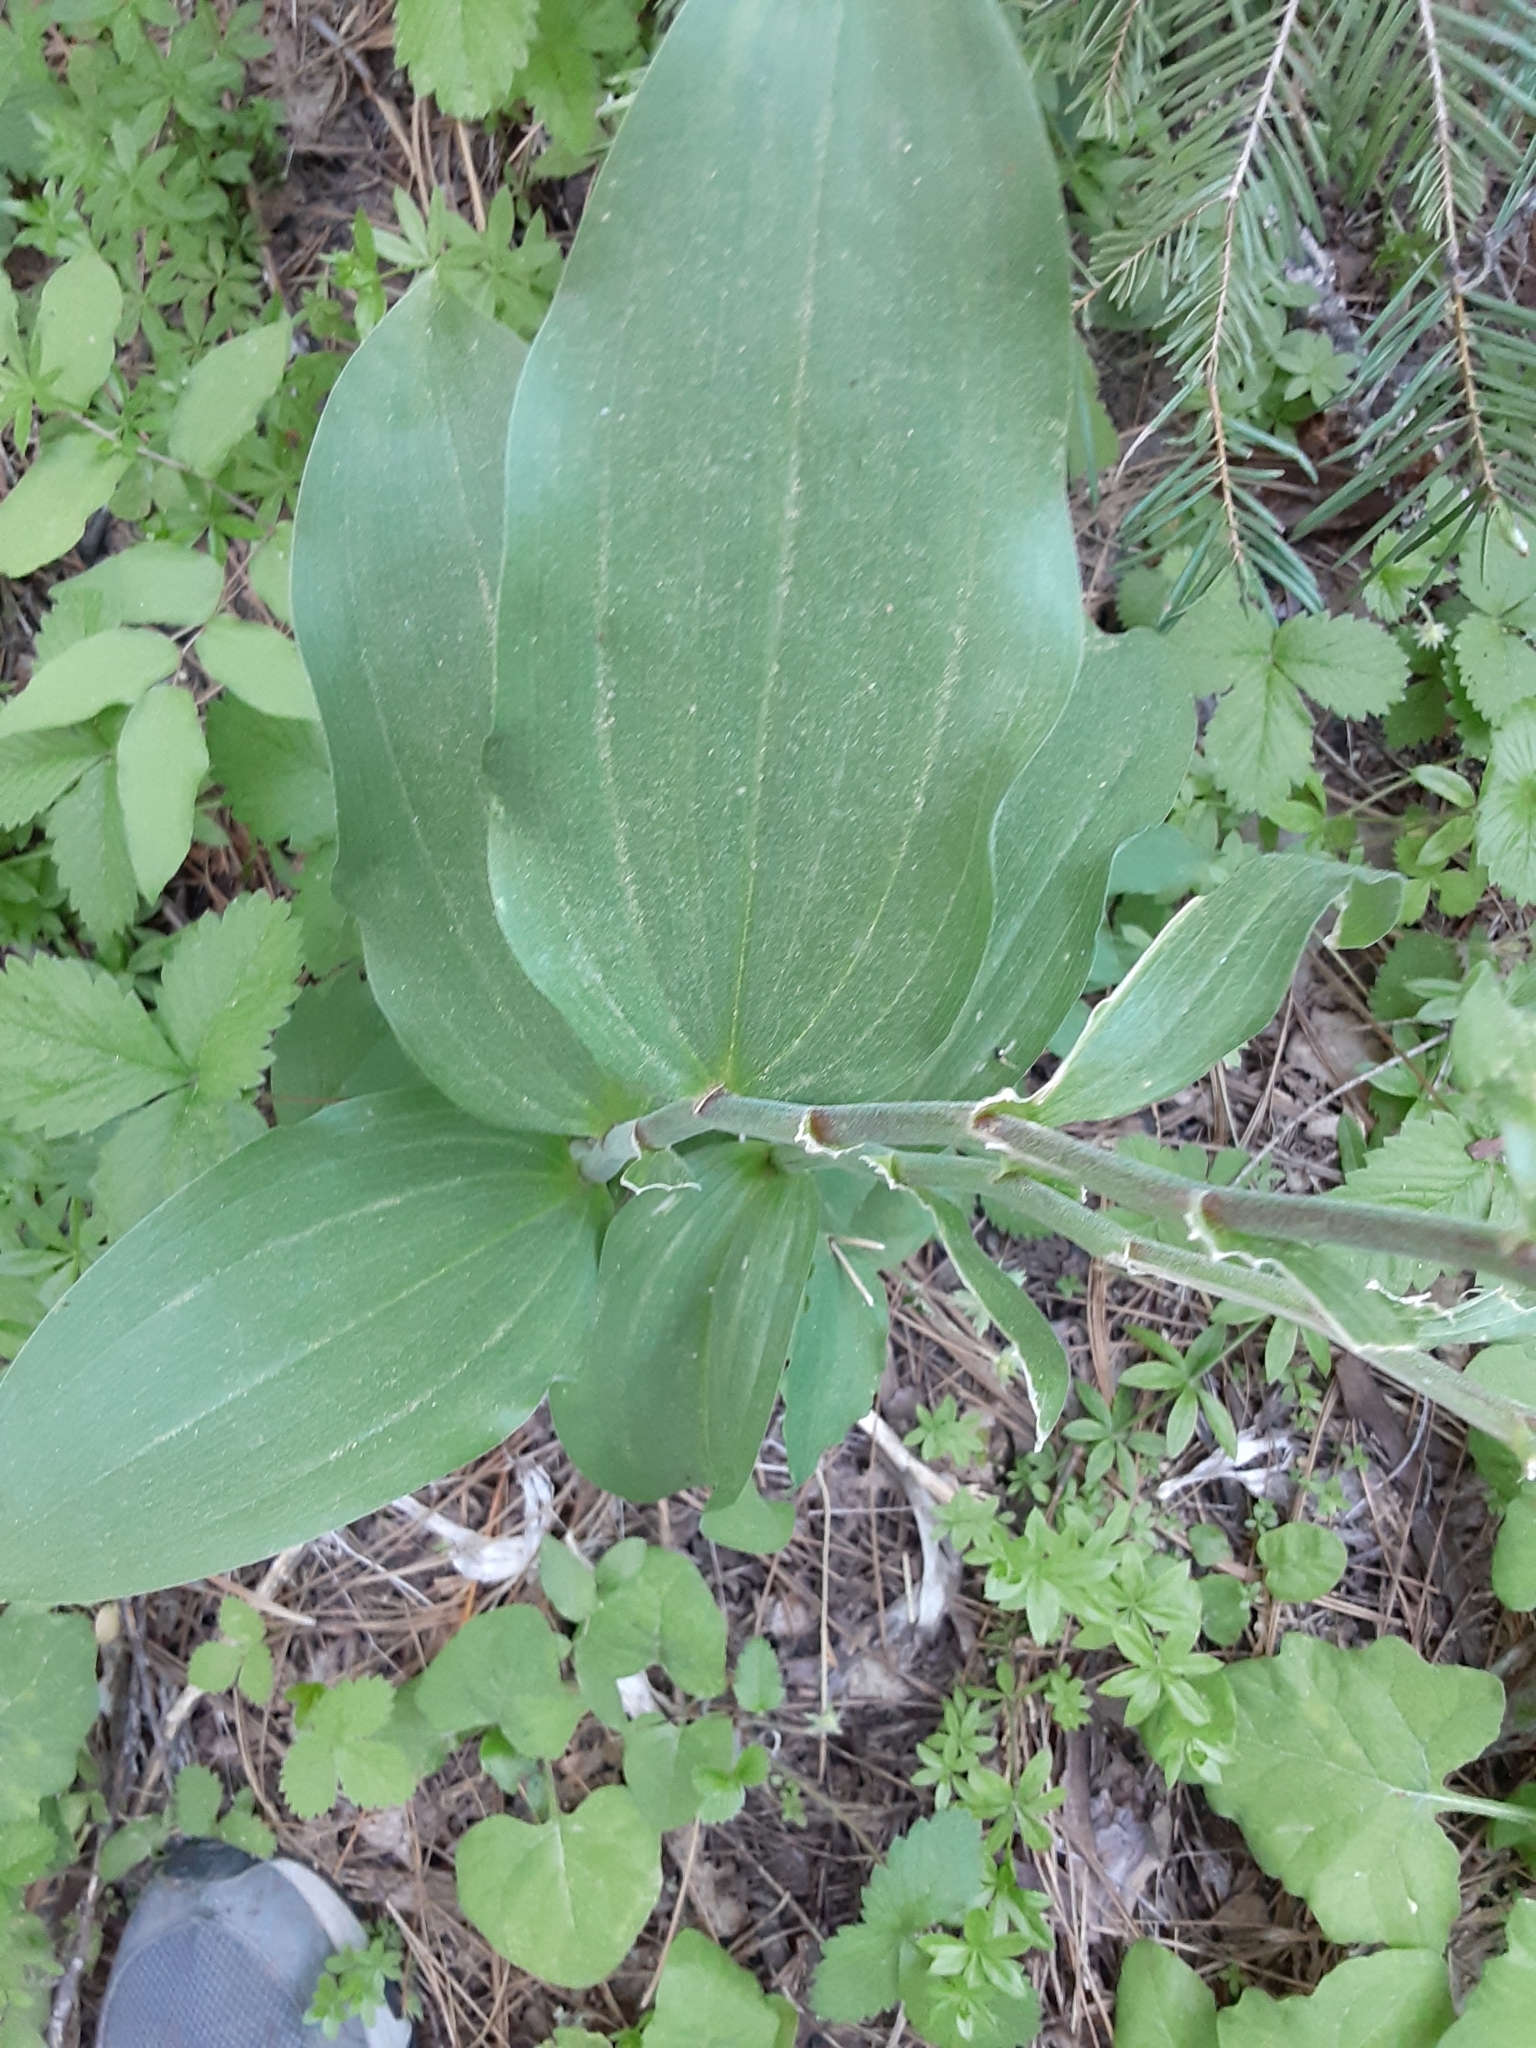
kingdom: Plantae
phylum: Tracheophyta
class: Liliopsida
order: Asparagales
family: Asparagaceae
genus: Maianthemum
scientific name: Maianthemum racemosum
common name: False spikenard
